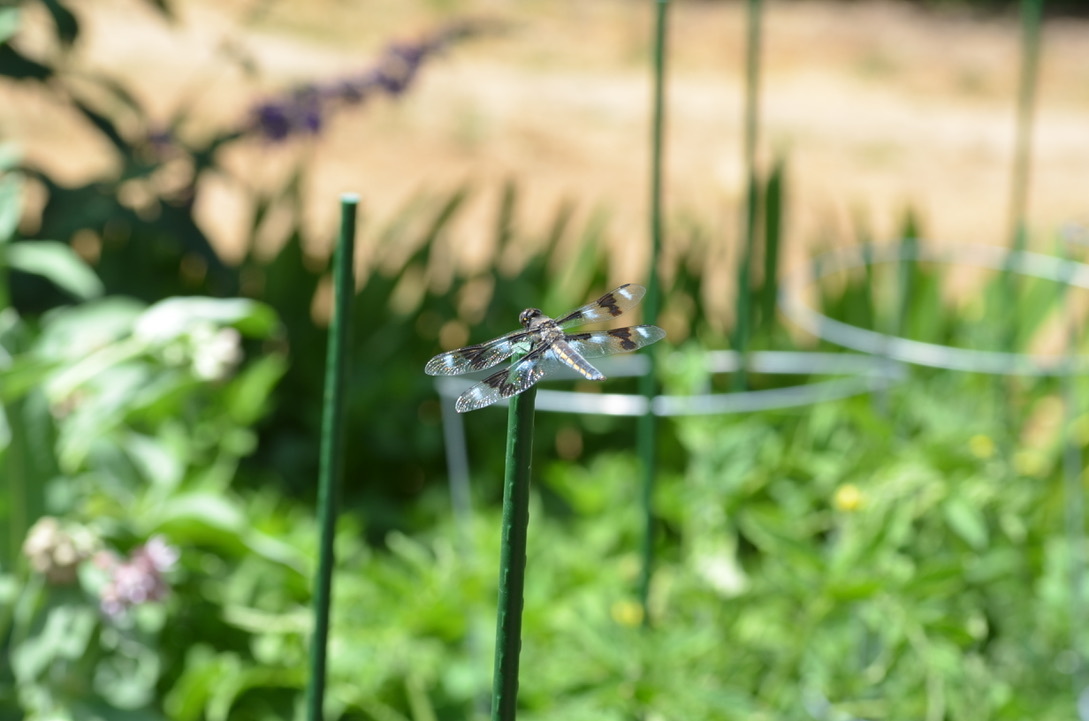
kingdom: Animalia
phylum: Arthropoda
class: Insecta
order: Odonata
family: Libellulidae
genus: Libellula
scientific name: Libellula forensis
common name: Eight-spotted skimmer
